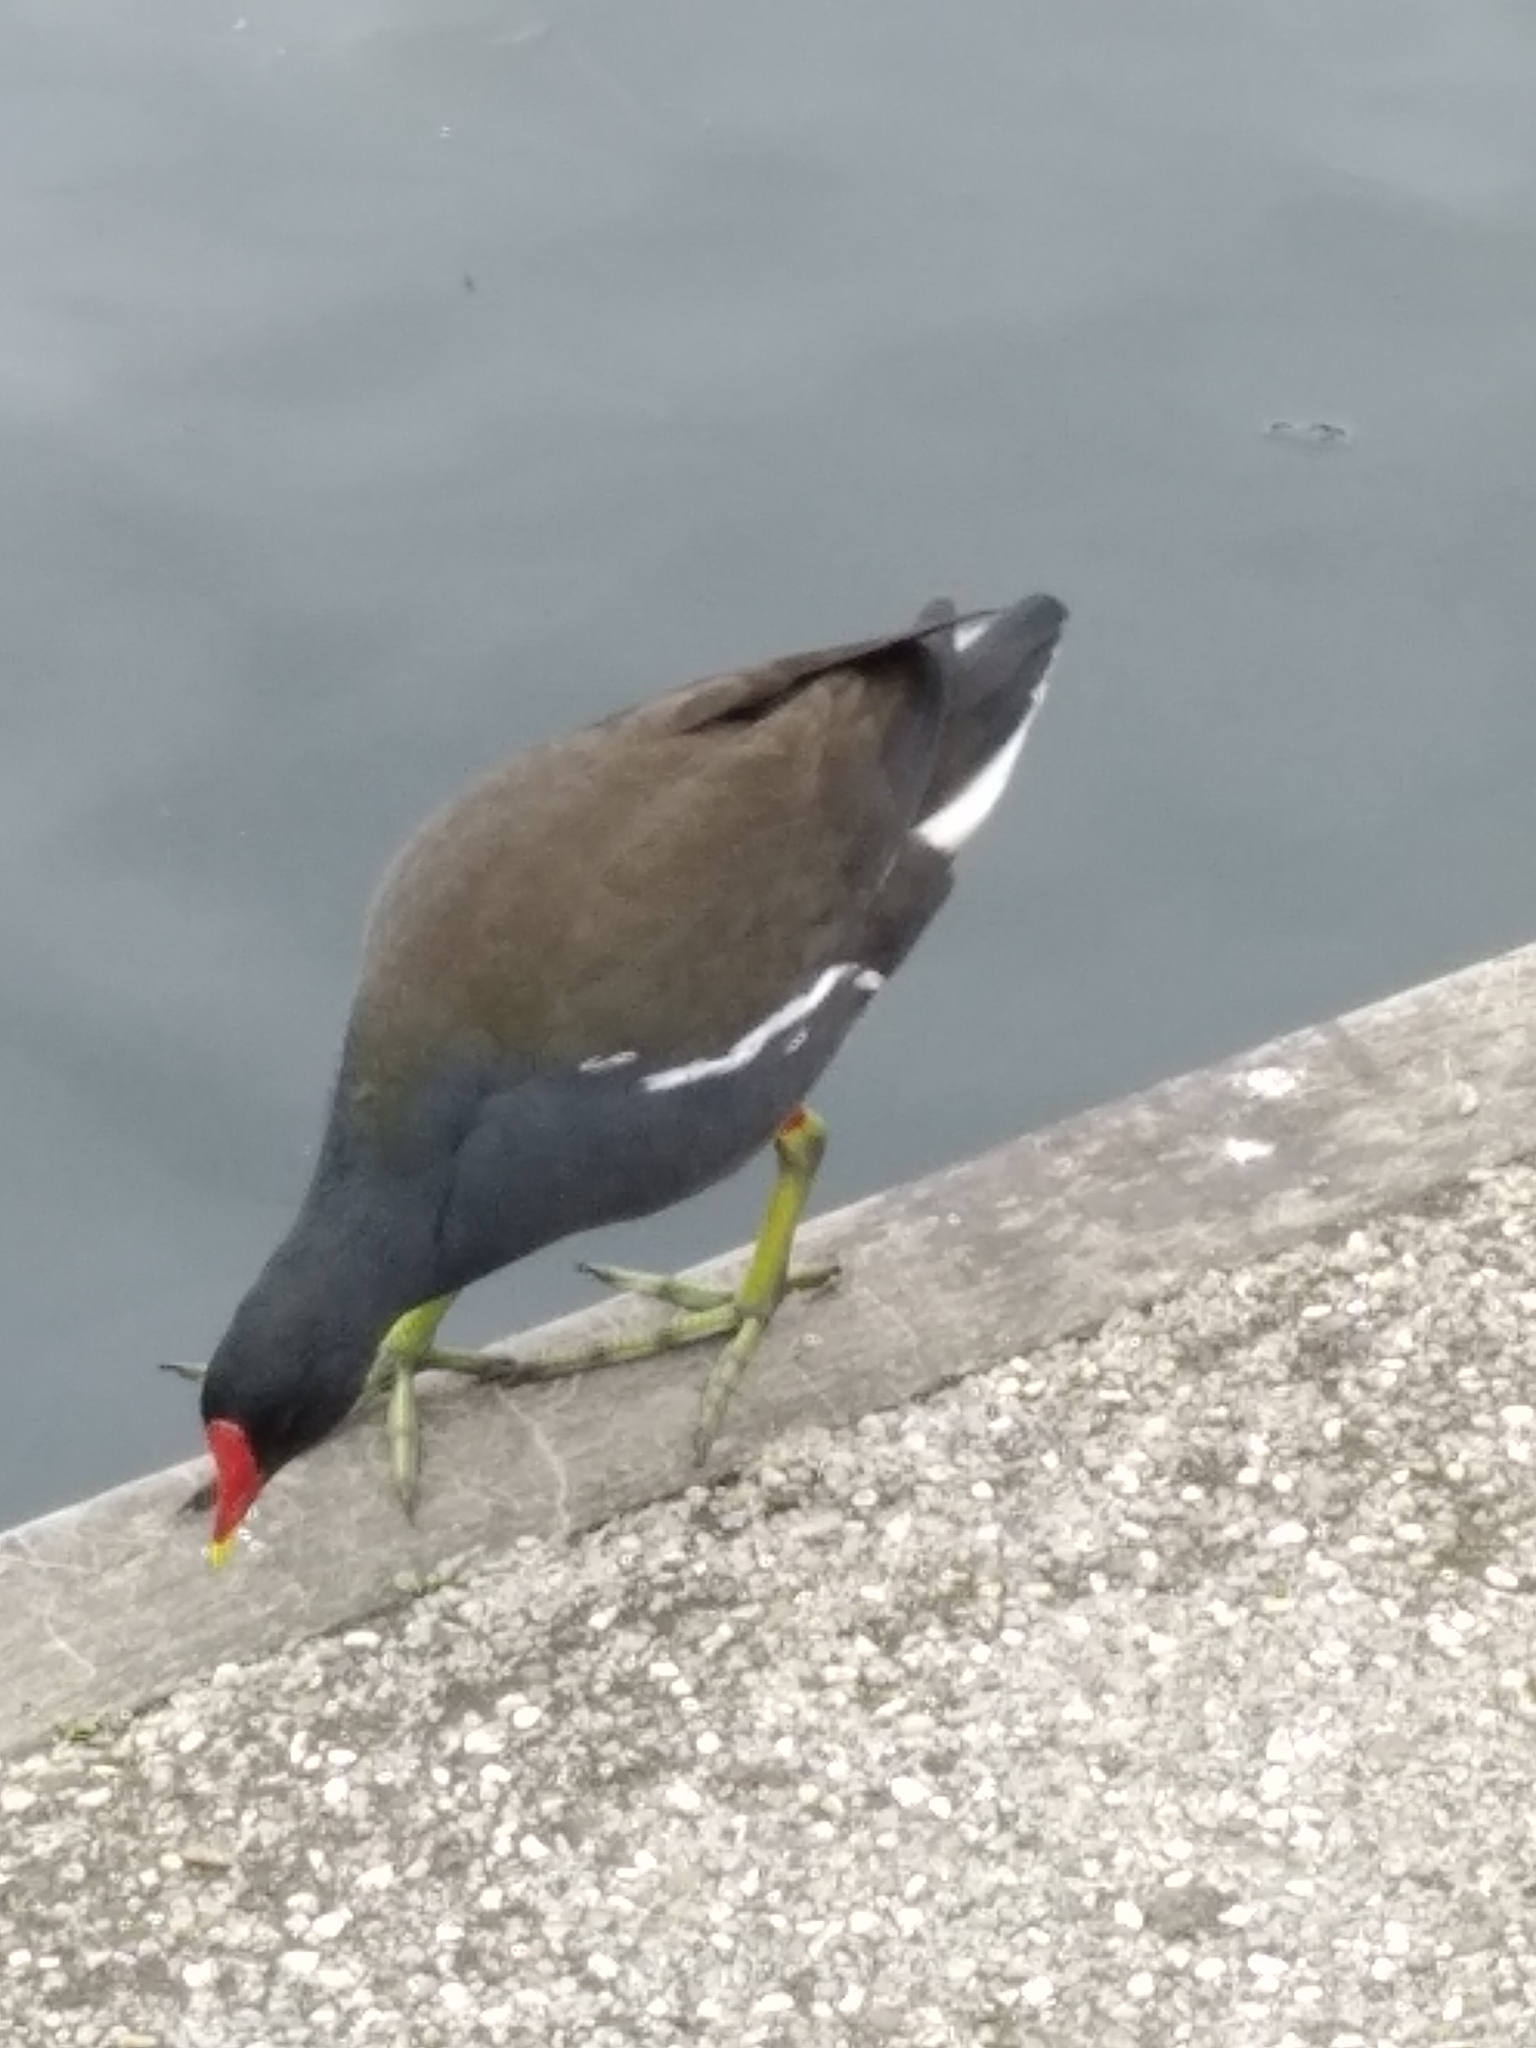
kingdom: Animalia
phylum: Chordata
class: Aves
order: Gruiformes
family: Rallidae
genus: Gallinula
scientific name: Gallinula chloropus
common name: Common moorhen
